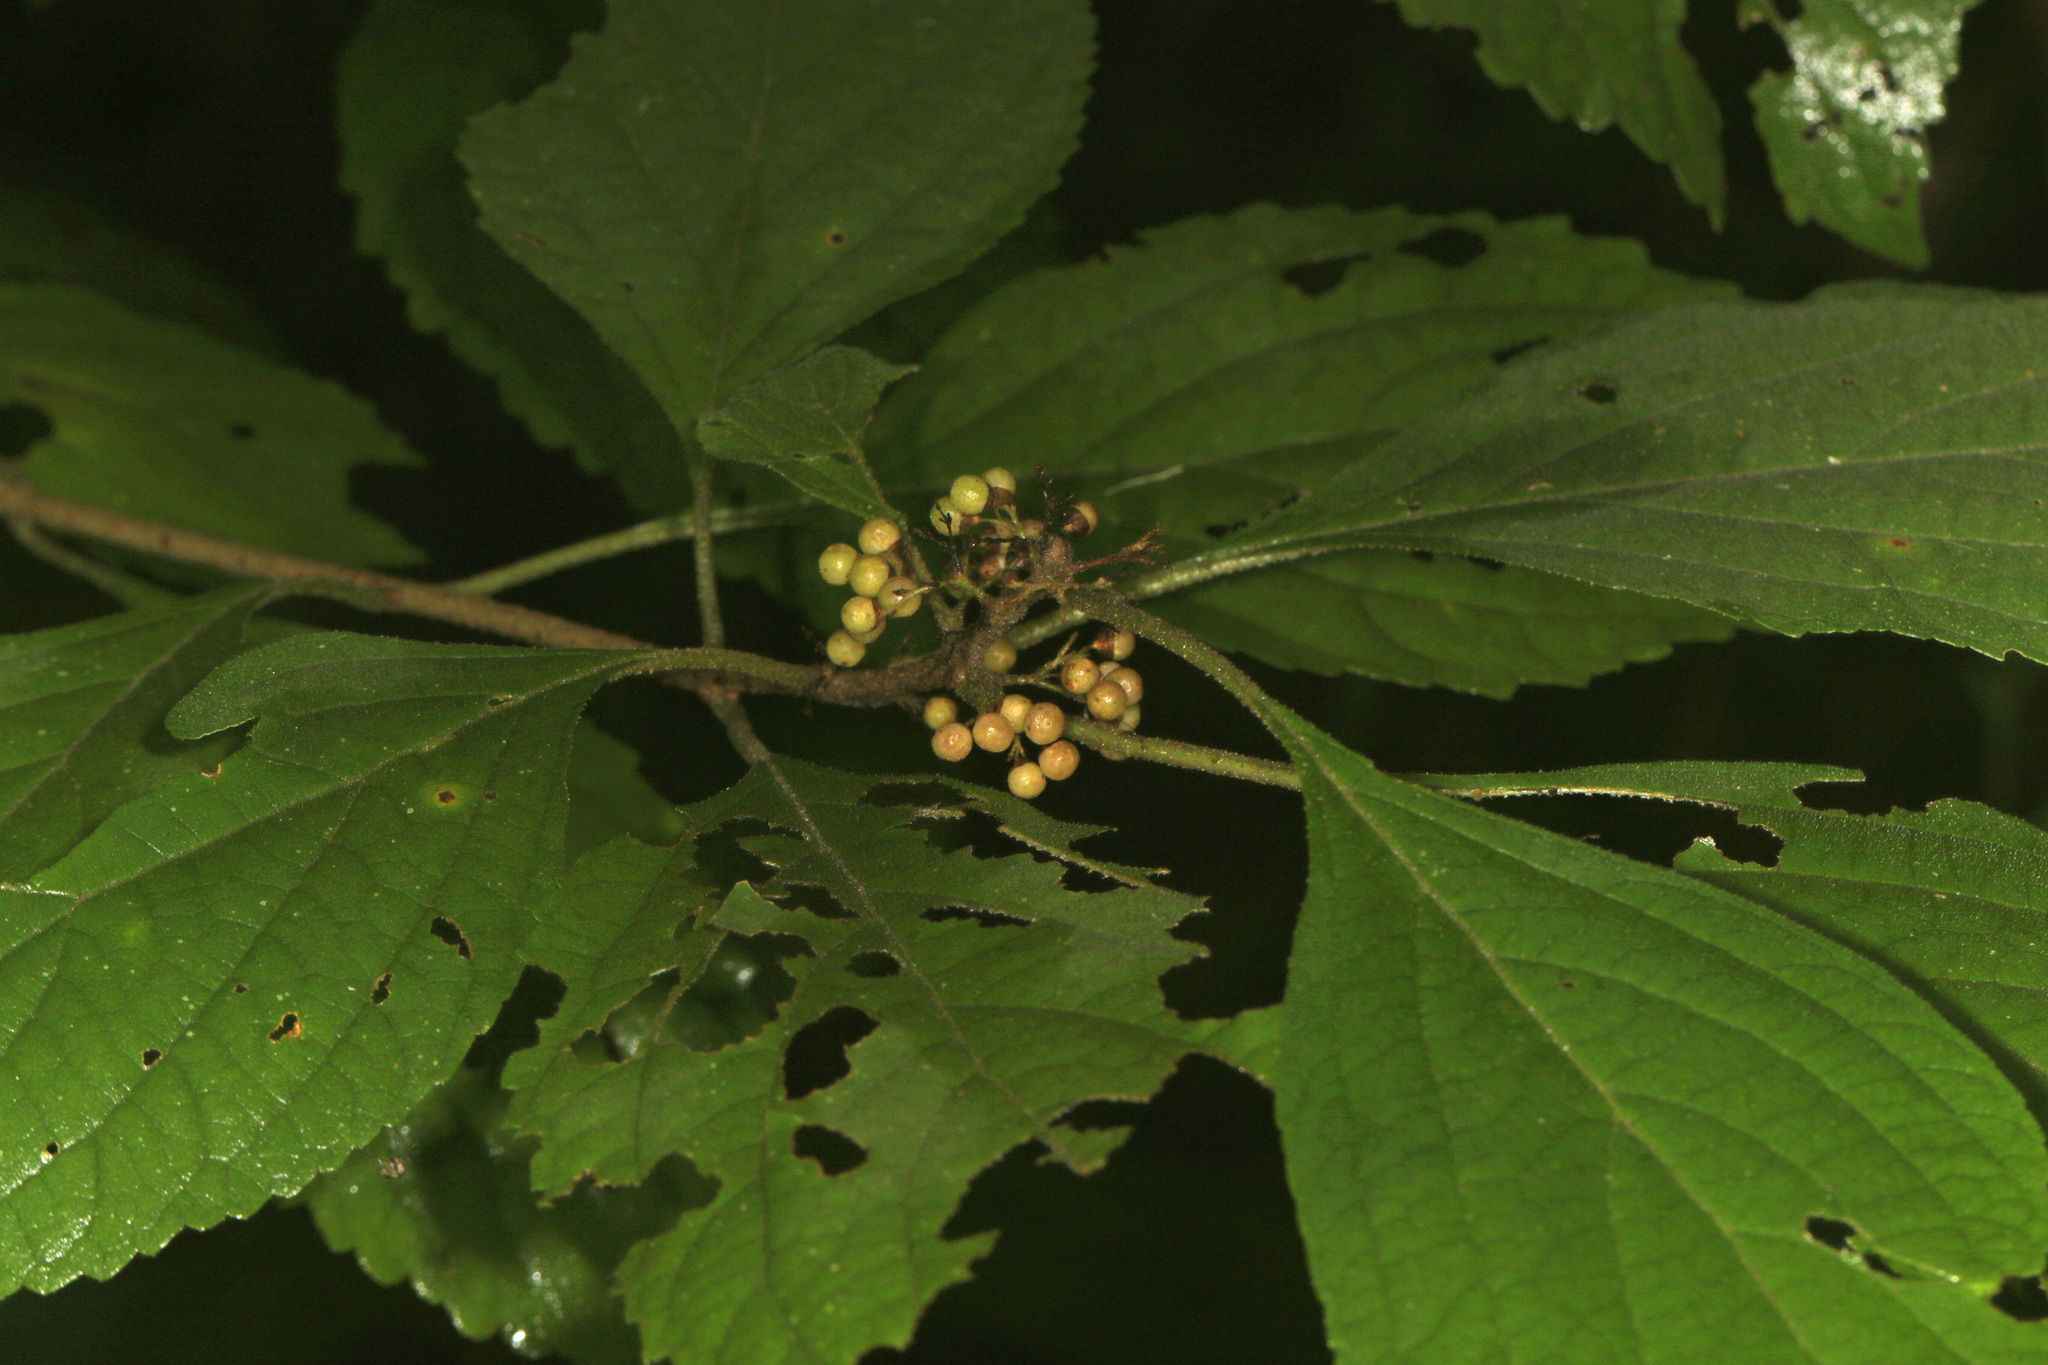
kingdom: Plantae
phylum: Tracheophyta
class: Magnoliopsida
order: Lamiales
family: Lamiaceae
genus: Callicarpa
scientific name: Callicarpa americana
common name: American beautyberry
